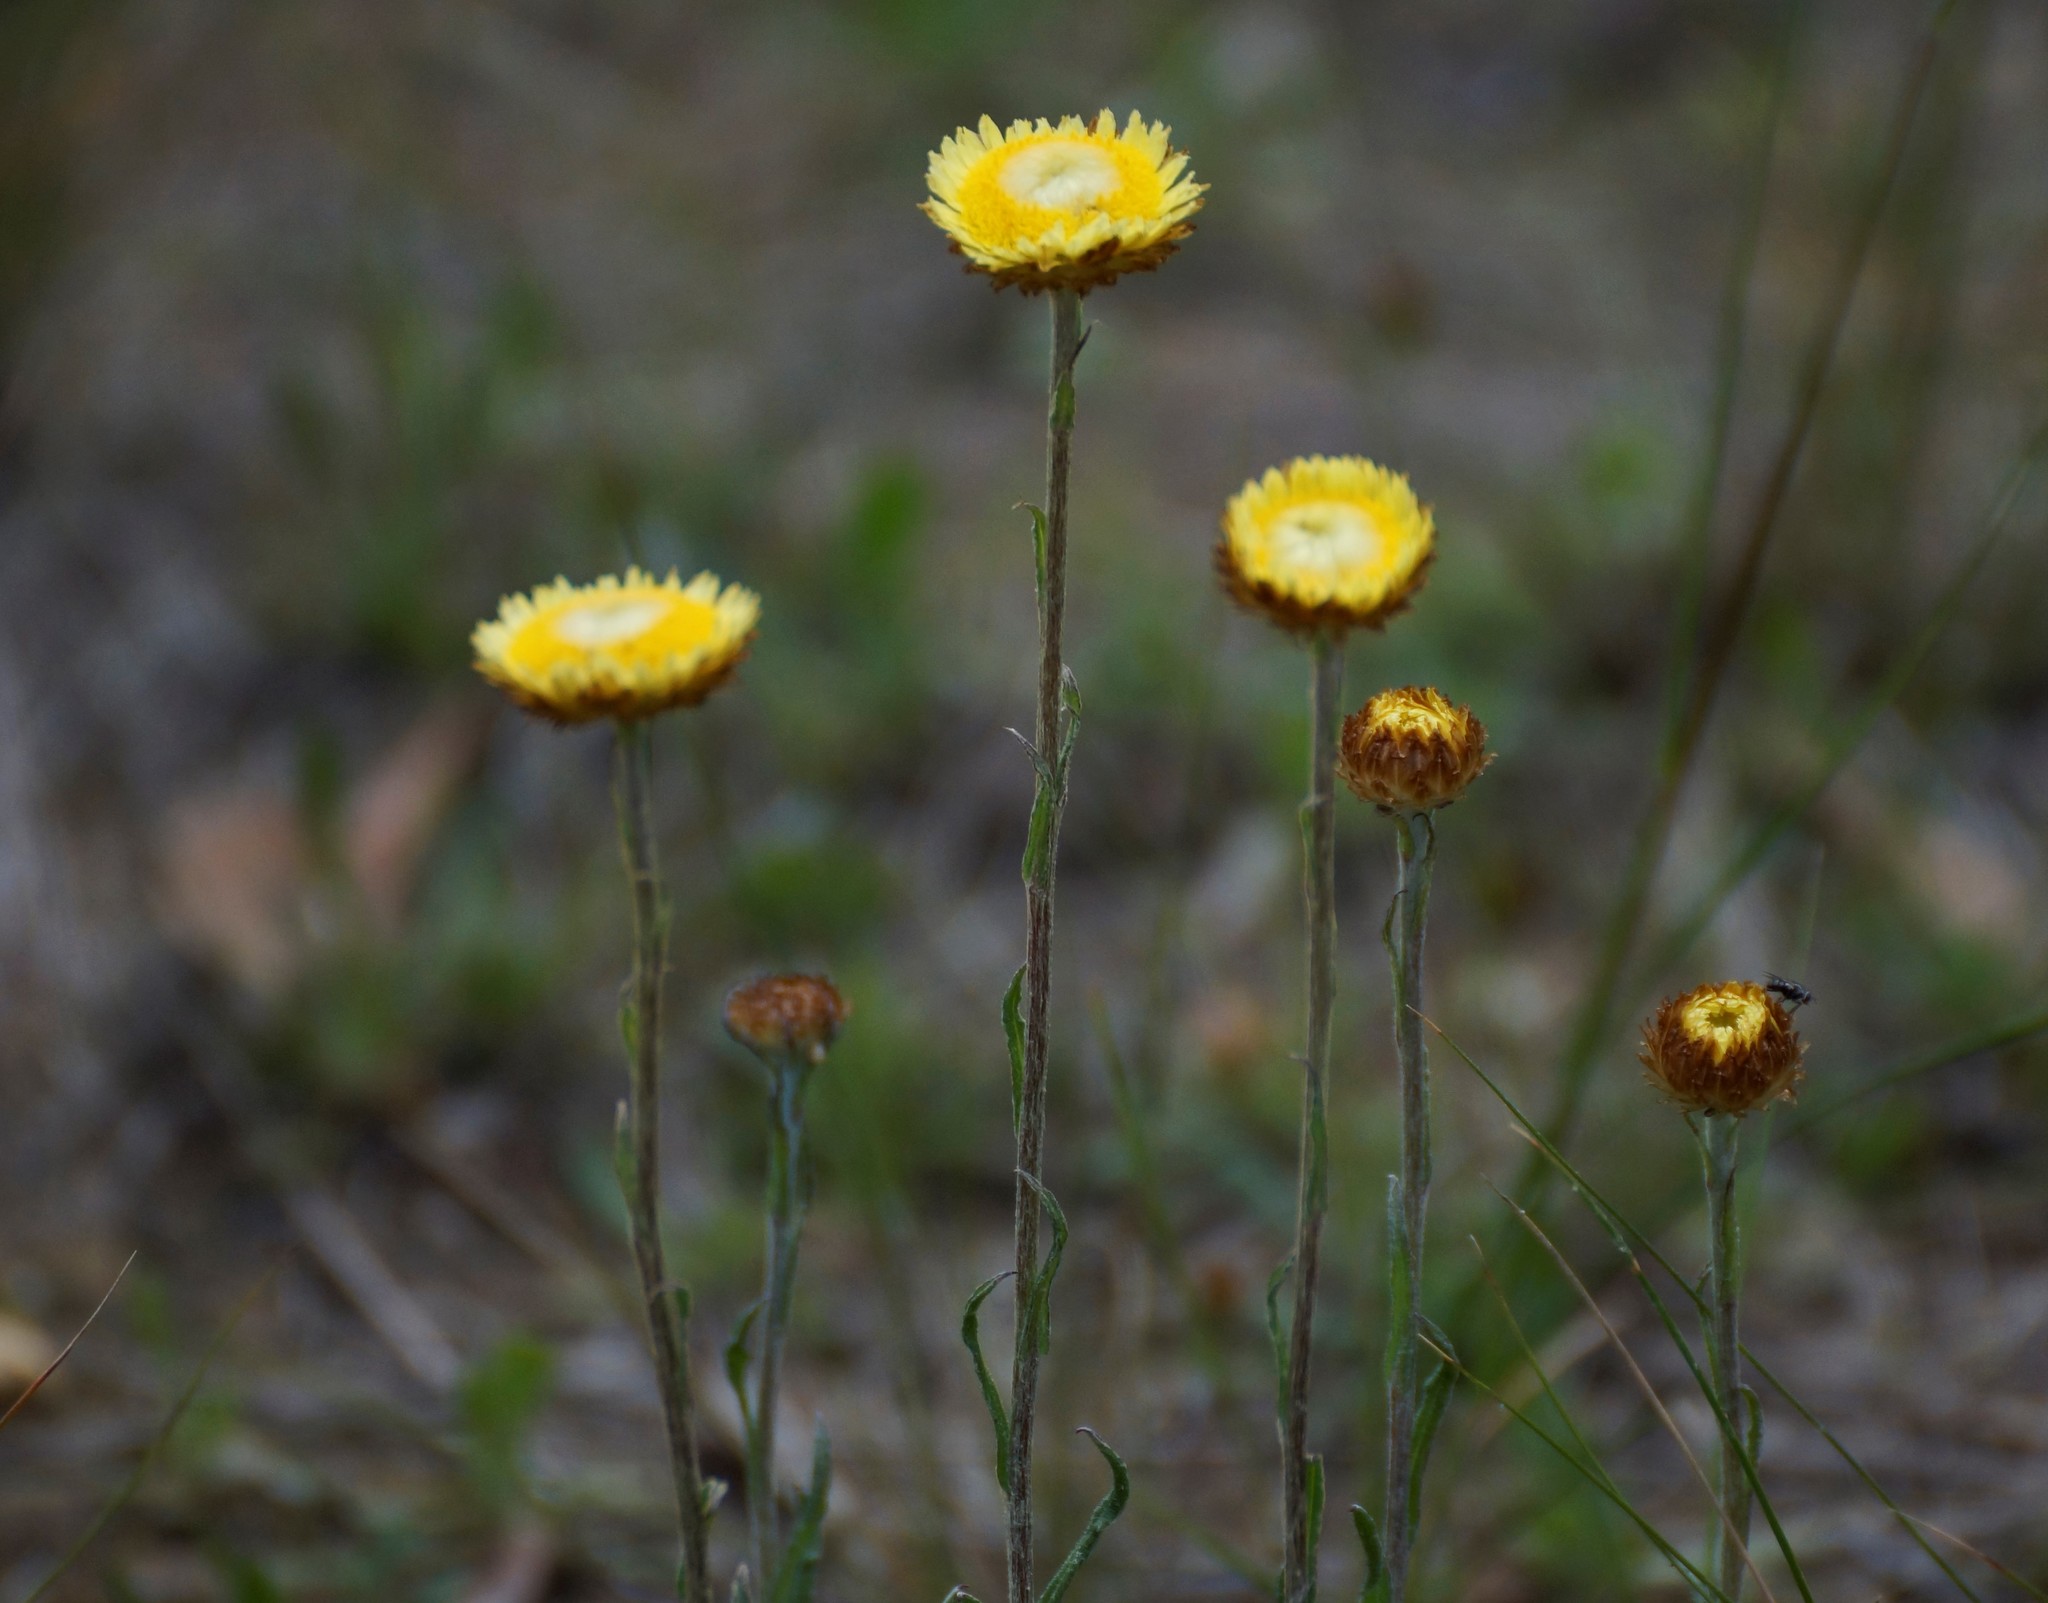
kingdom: Plantae
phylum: Tracheophyta
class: Magnoliopsida
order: Asterales
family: Asteraceae
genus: Coronidium
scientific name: Coronidium scorpioides
